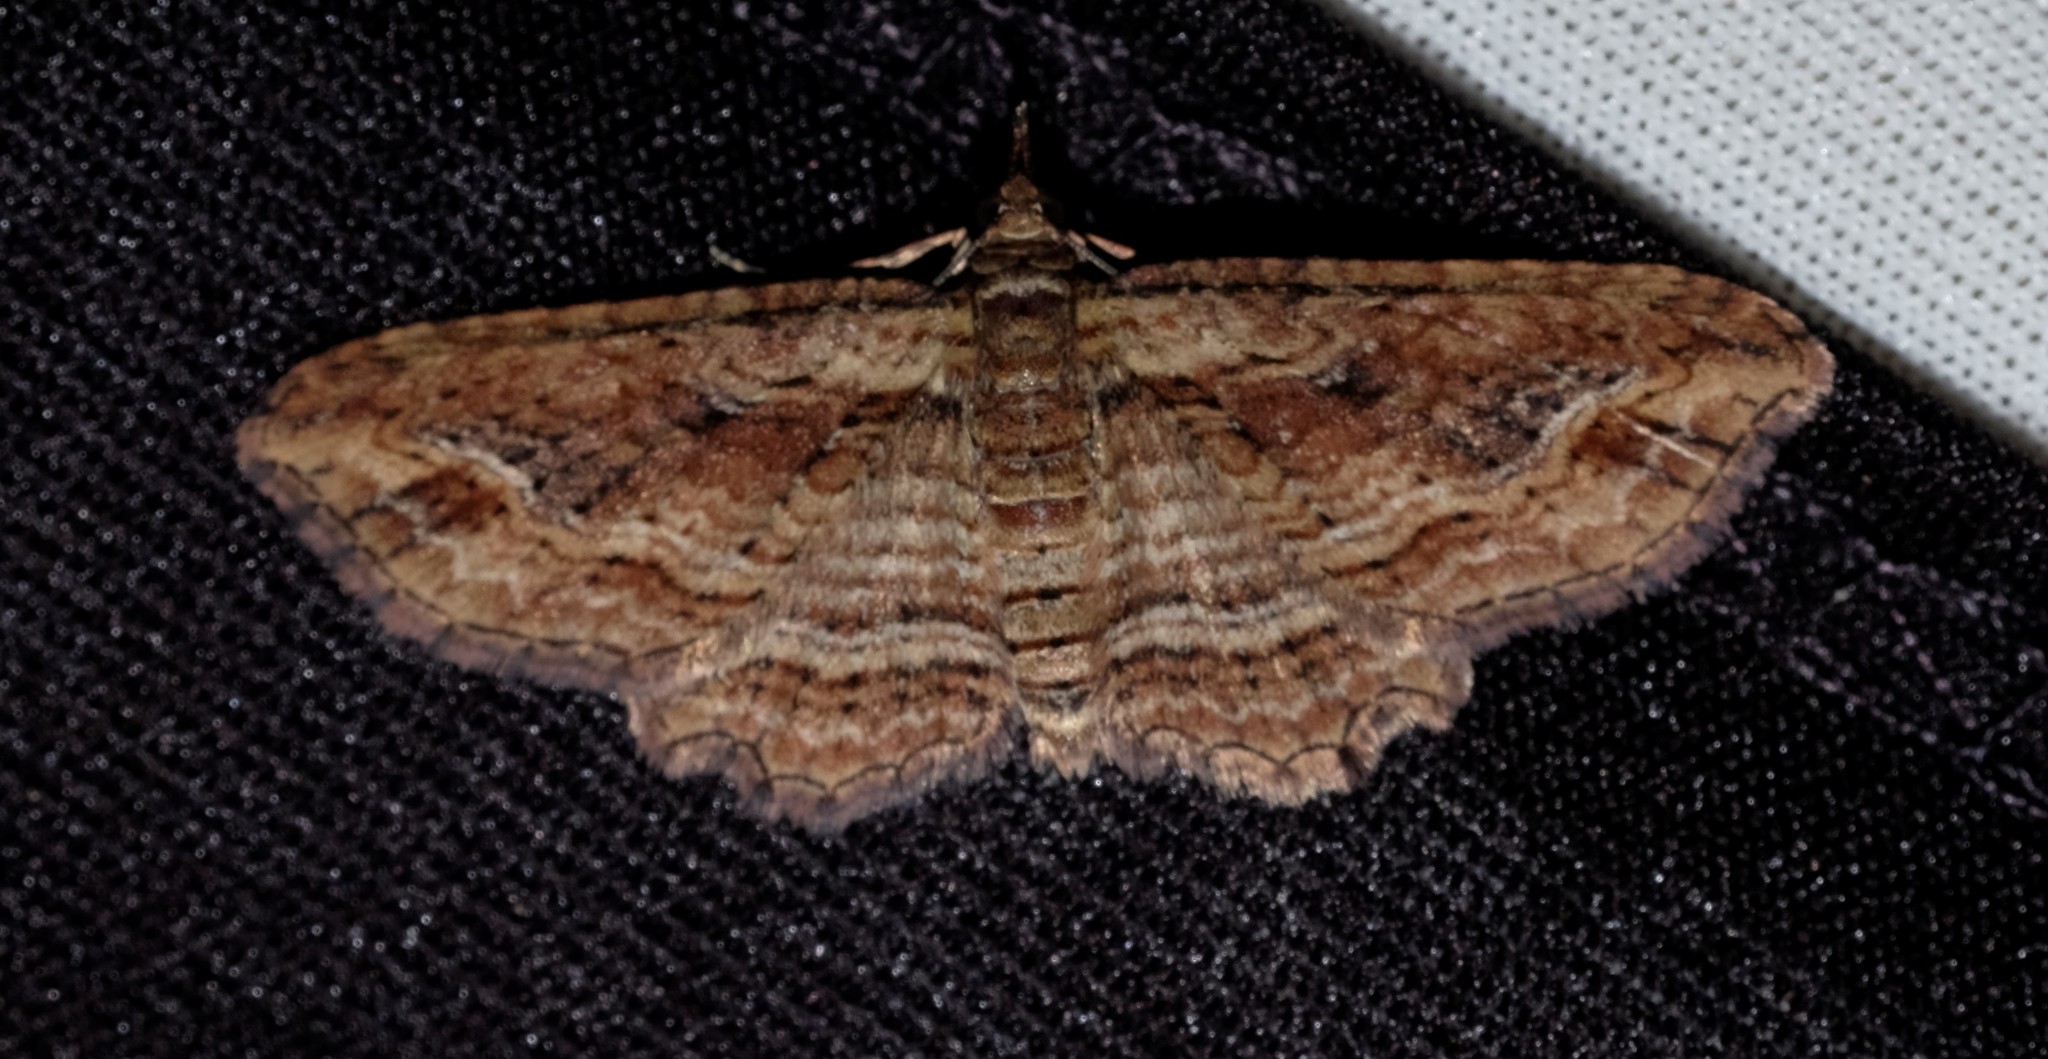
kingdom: Animalia
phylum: Arthropoda
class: Insecta
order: Lepidoptera
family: Geometridae
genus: Chloroclystis
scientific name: Chloroclystis filata
